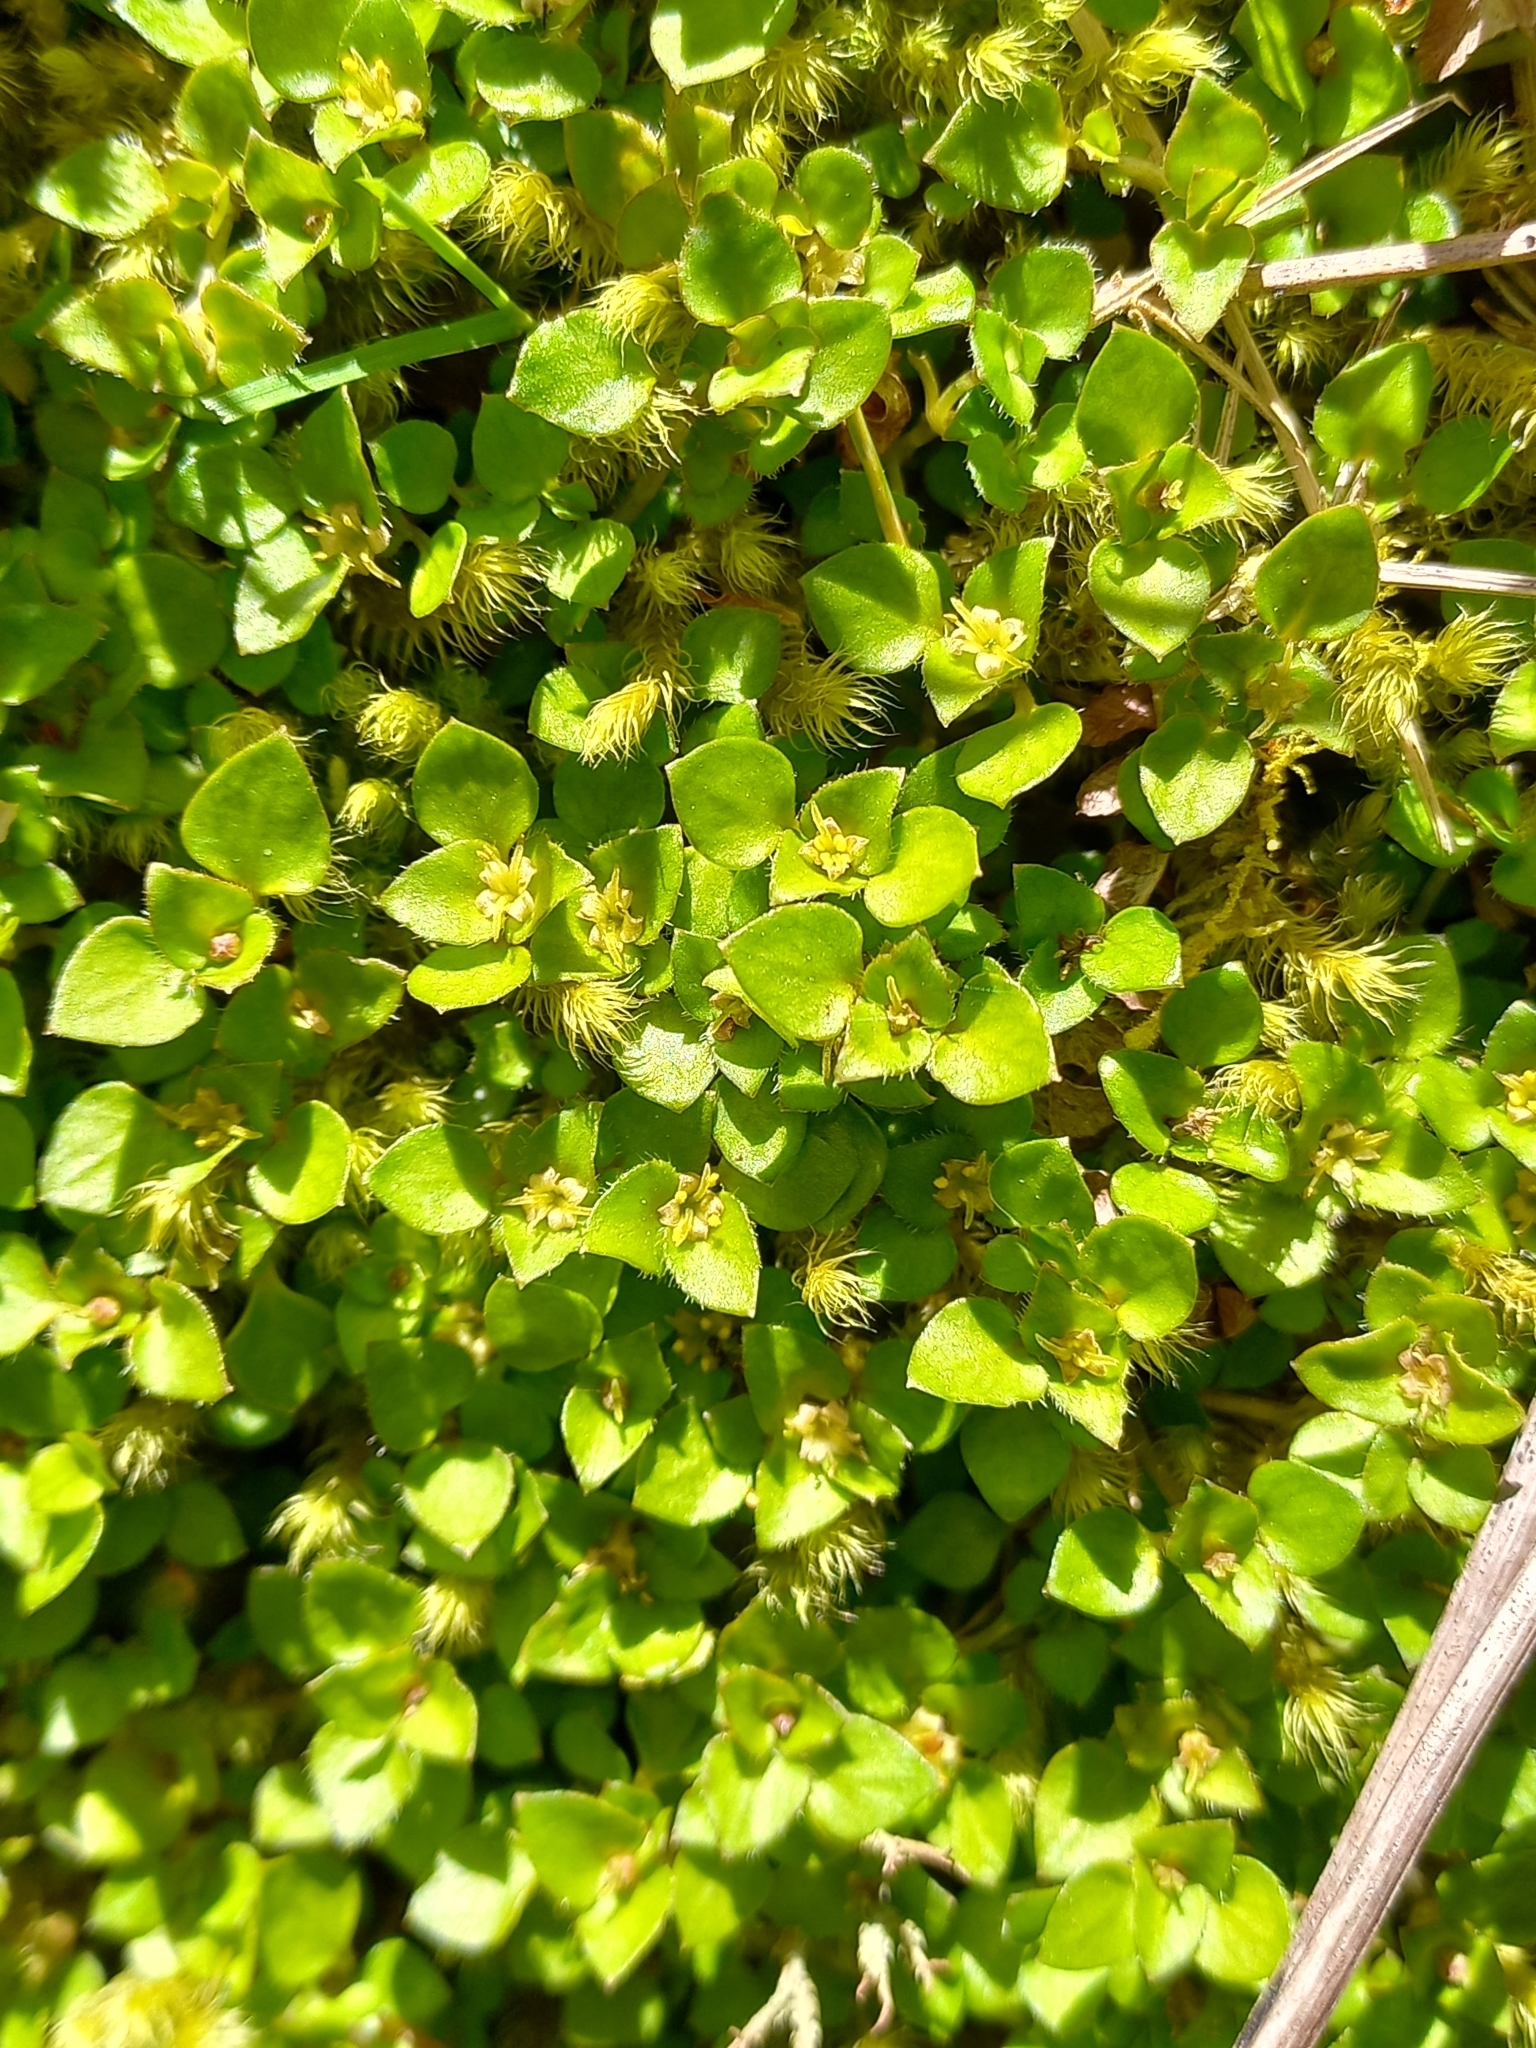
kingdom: Plantae
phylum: Tracheophyta
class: Magnoliopsida
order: Gentianales
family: Rubiaceae
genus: Nertera
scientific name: Nertera ciliata
